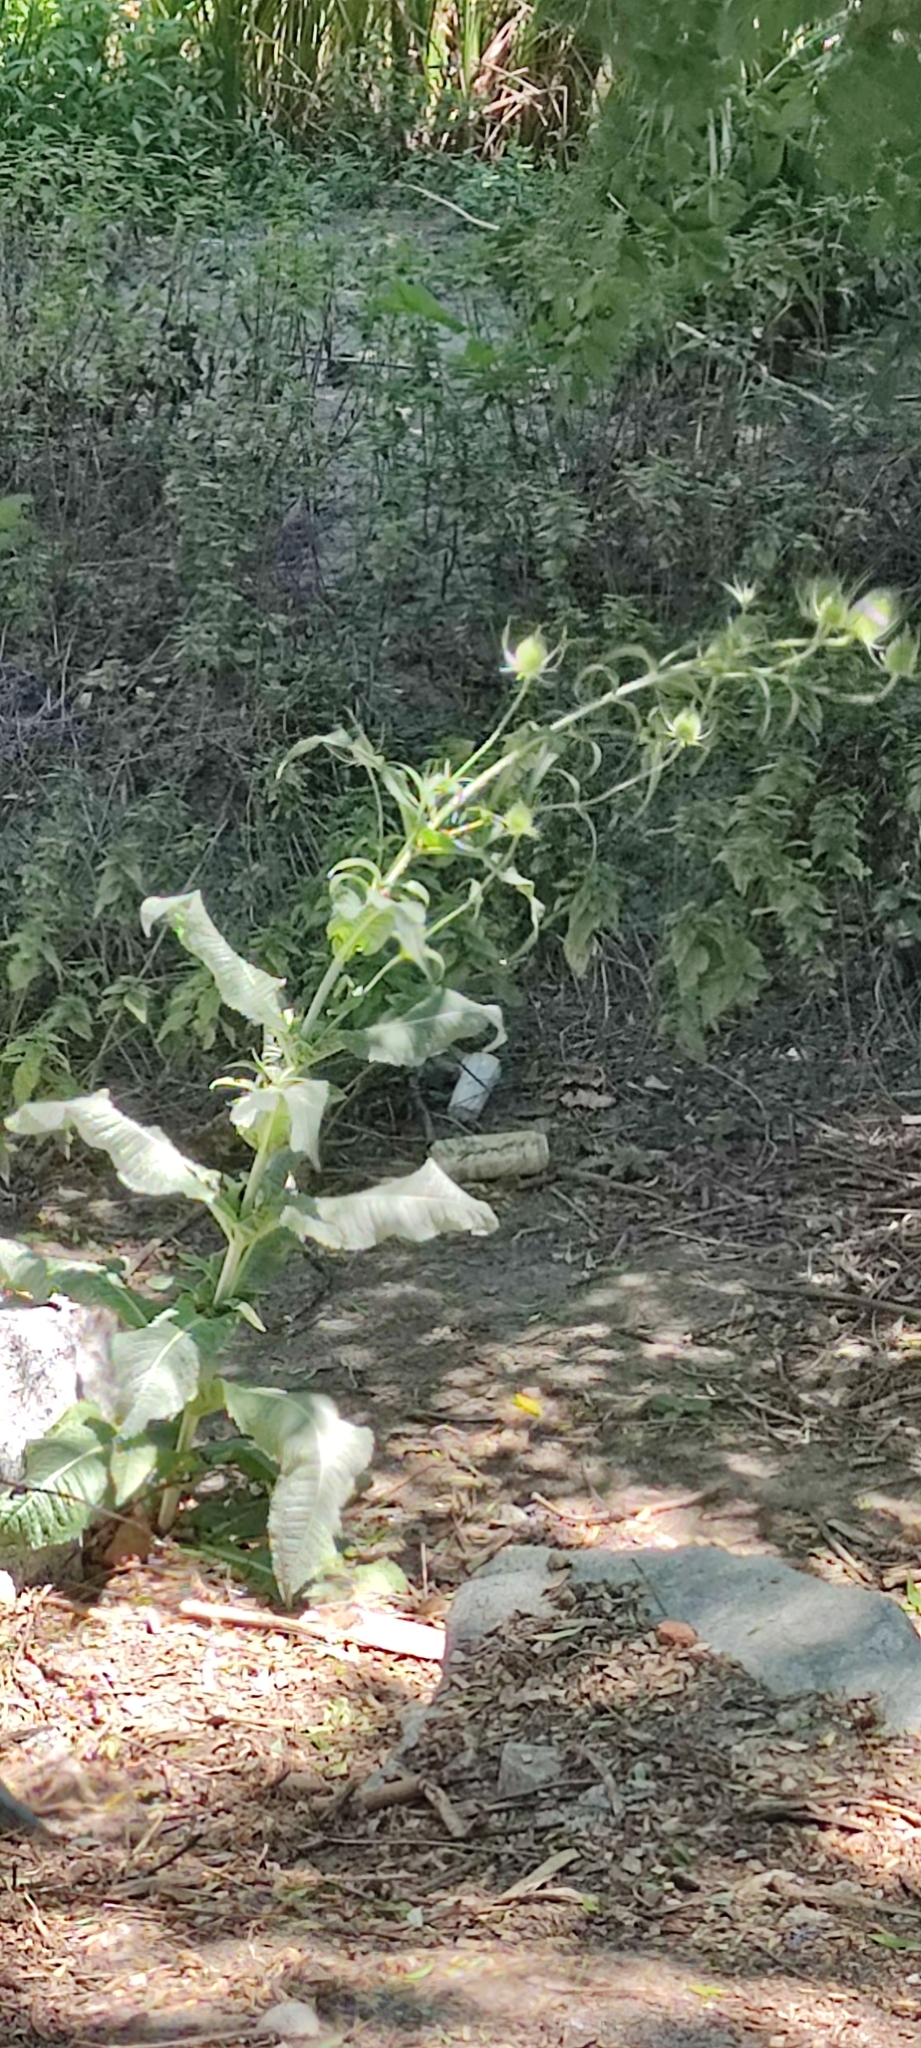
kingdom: Plantae
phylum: Tracheophyta
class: Magnoliopsida
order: Dipsacales
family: Caprifoliaceae
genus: Dipsacus
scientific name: Dipsacus fullonum
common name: Teasel
